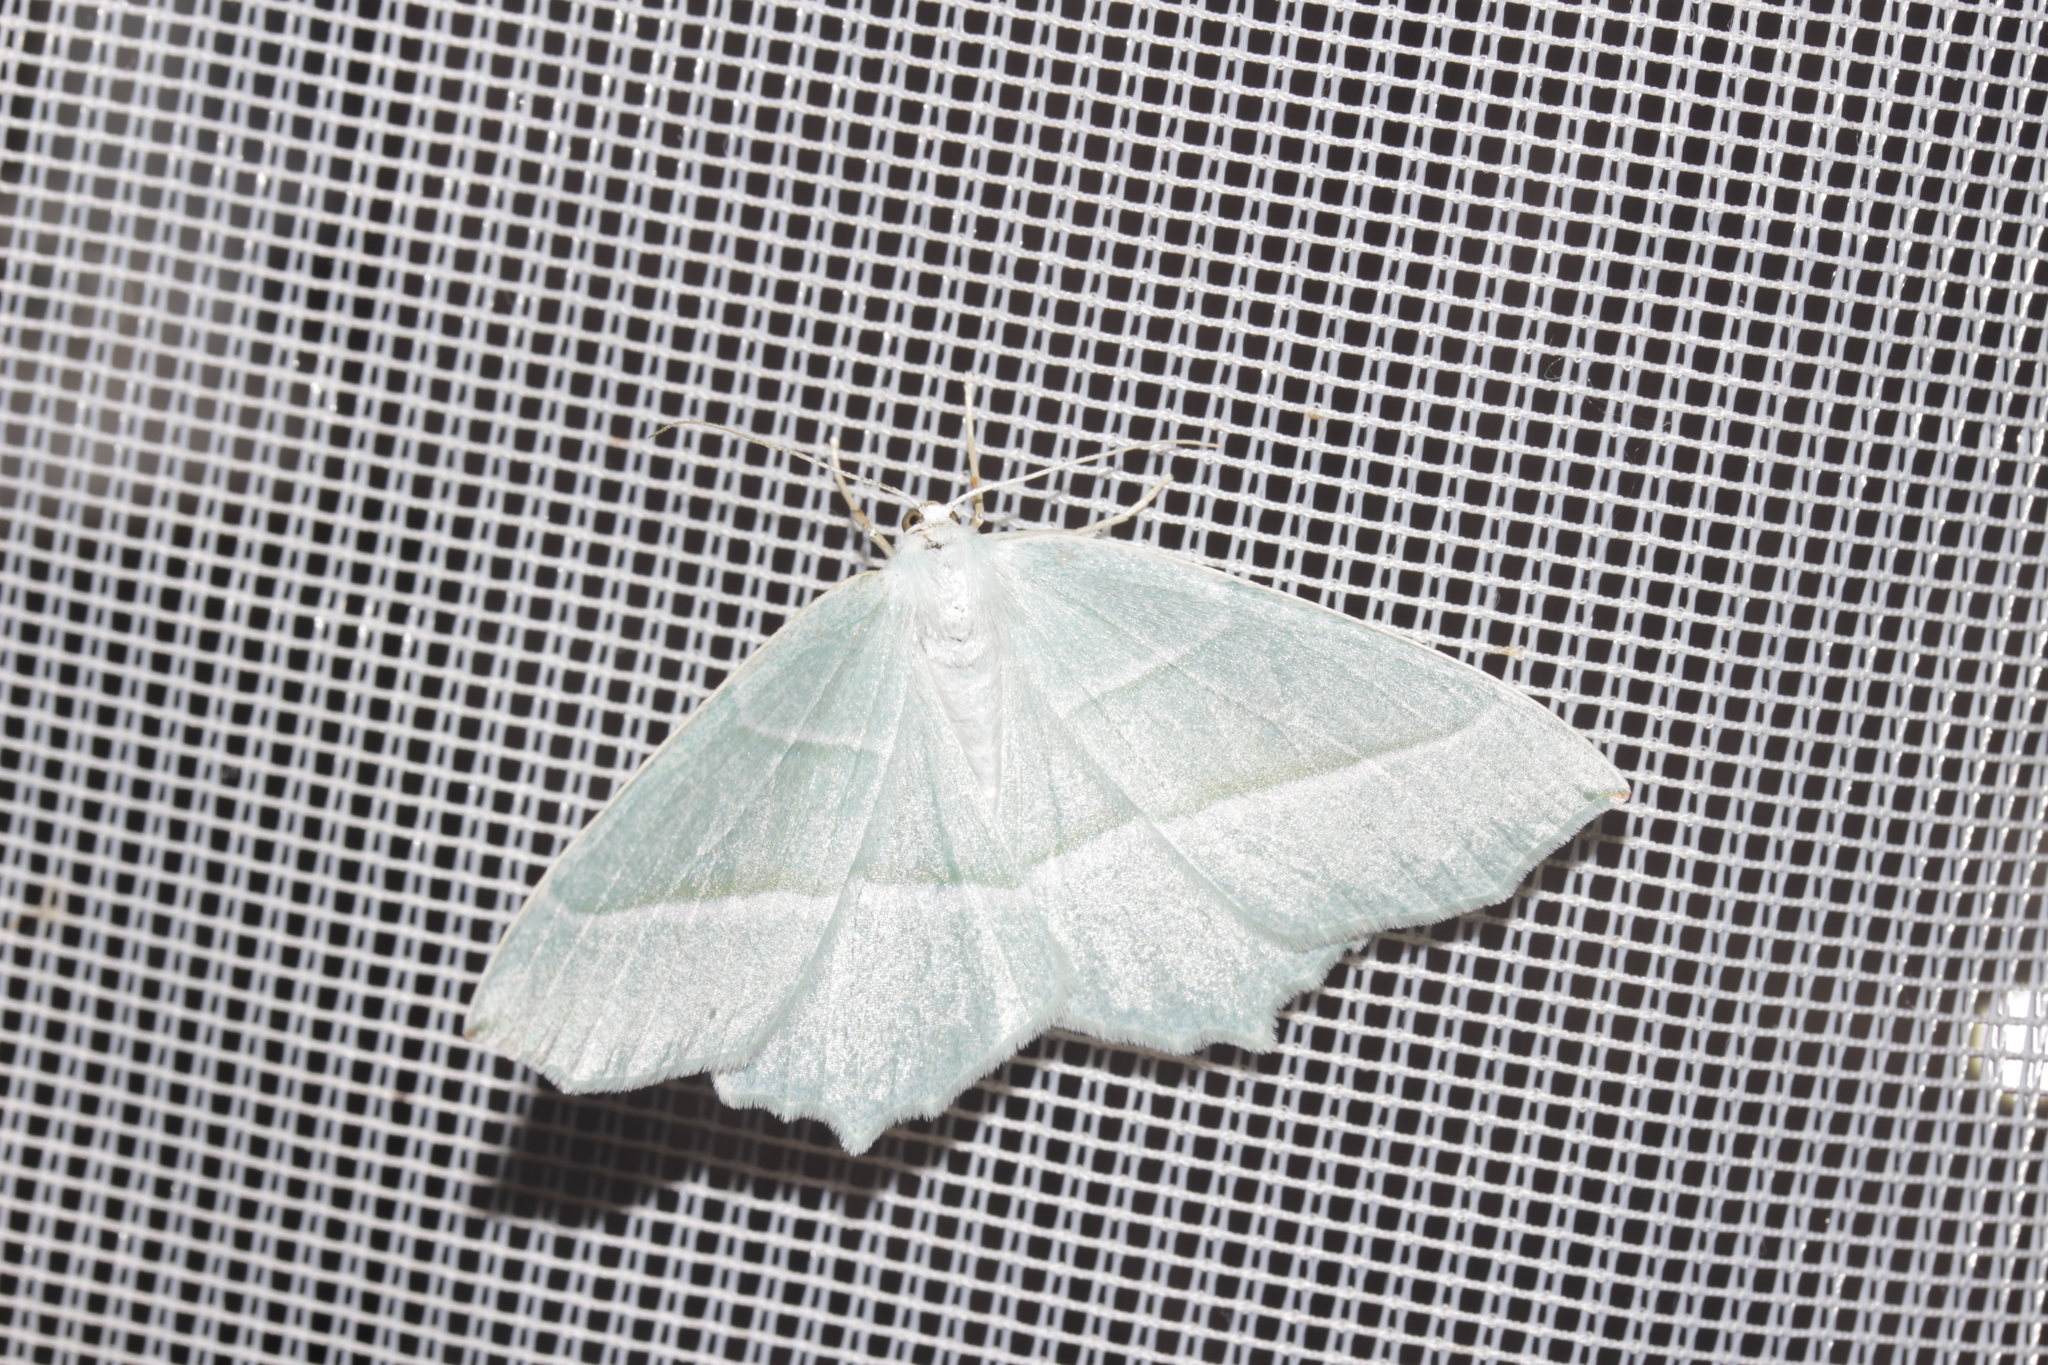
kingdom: Animalia
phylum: Arthropoda
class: Insecta
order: Lepidoptera
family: Geometridae
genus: Campaea
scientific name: Campaea margaritaria
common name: Light emerald
